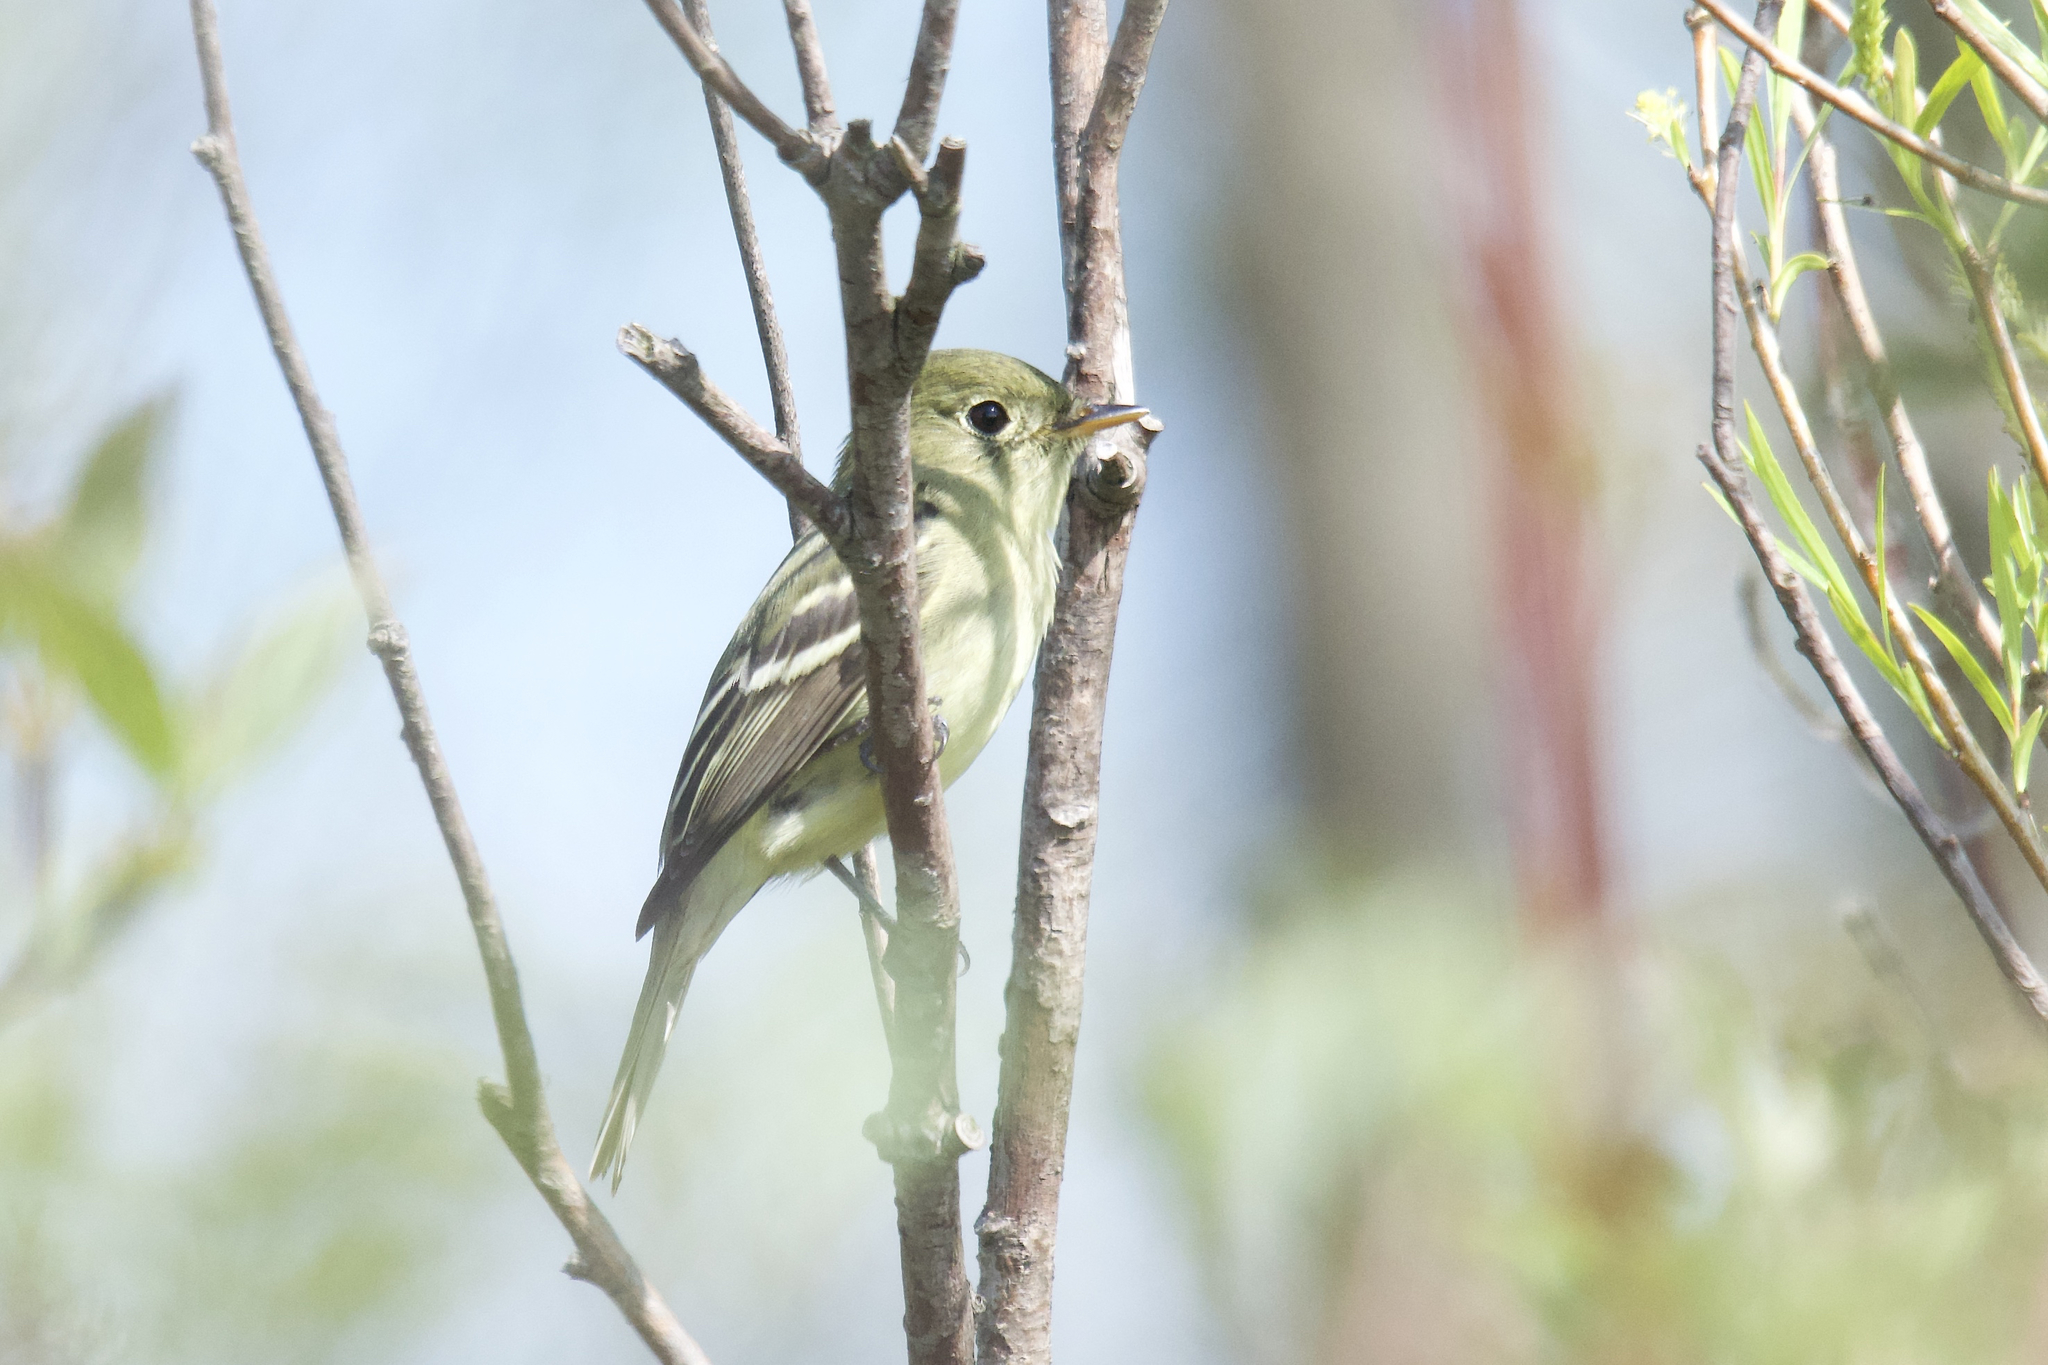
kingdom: Animalia
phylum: Chordata
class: Aves
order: Passeriformes
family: Tyrannidae
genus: Empidonax
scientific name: Empidonax flaviventris
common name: Yellow-bellied flycatcher
